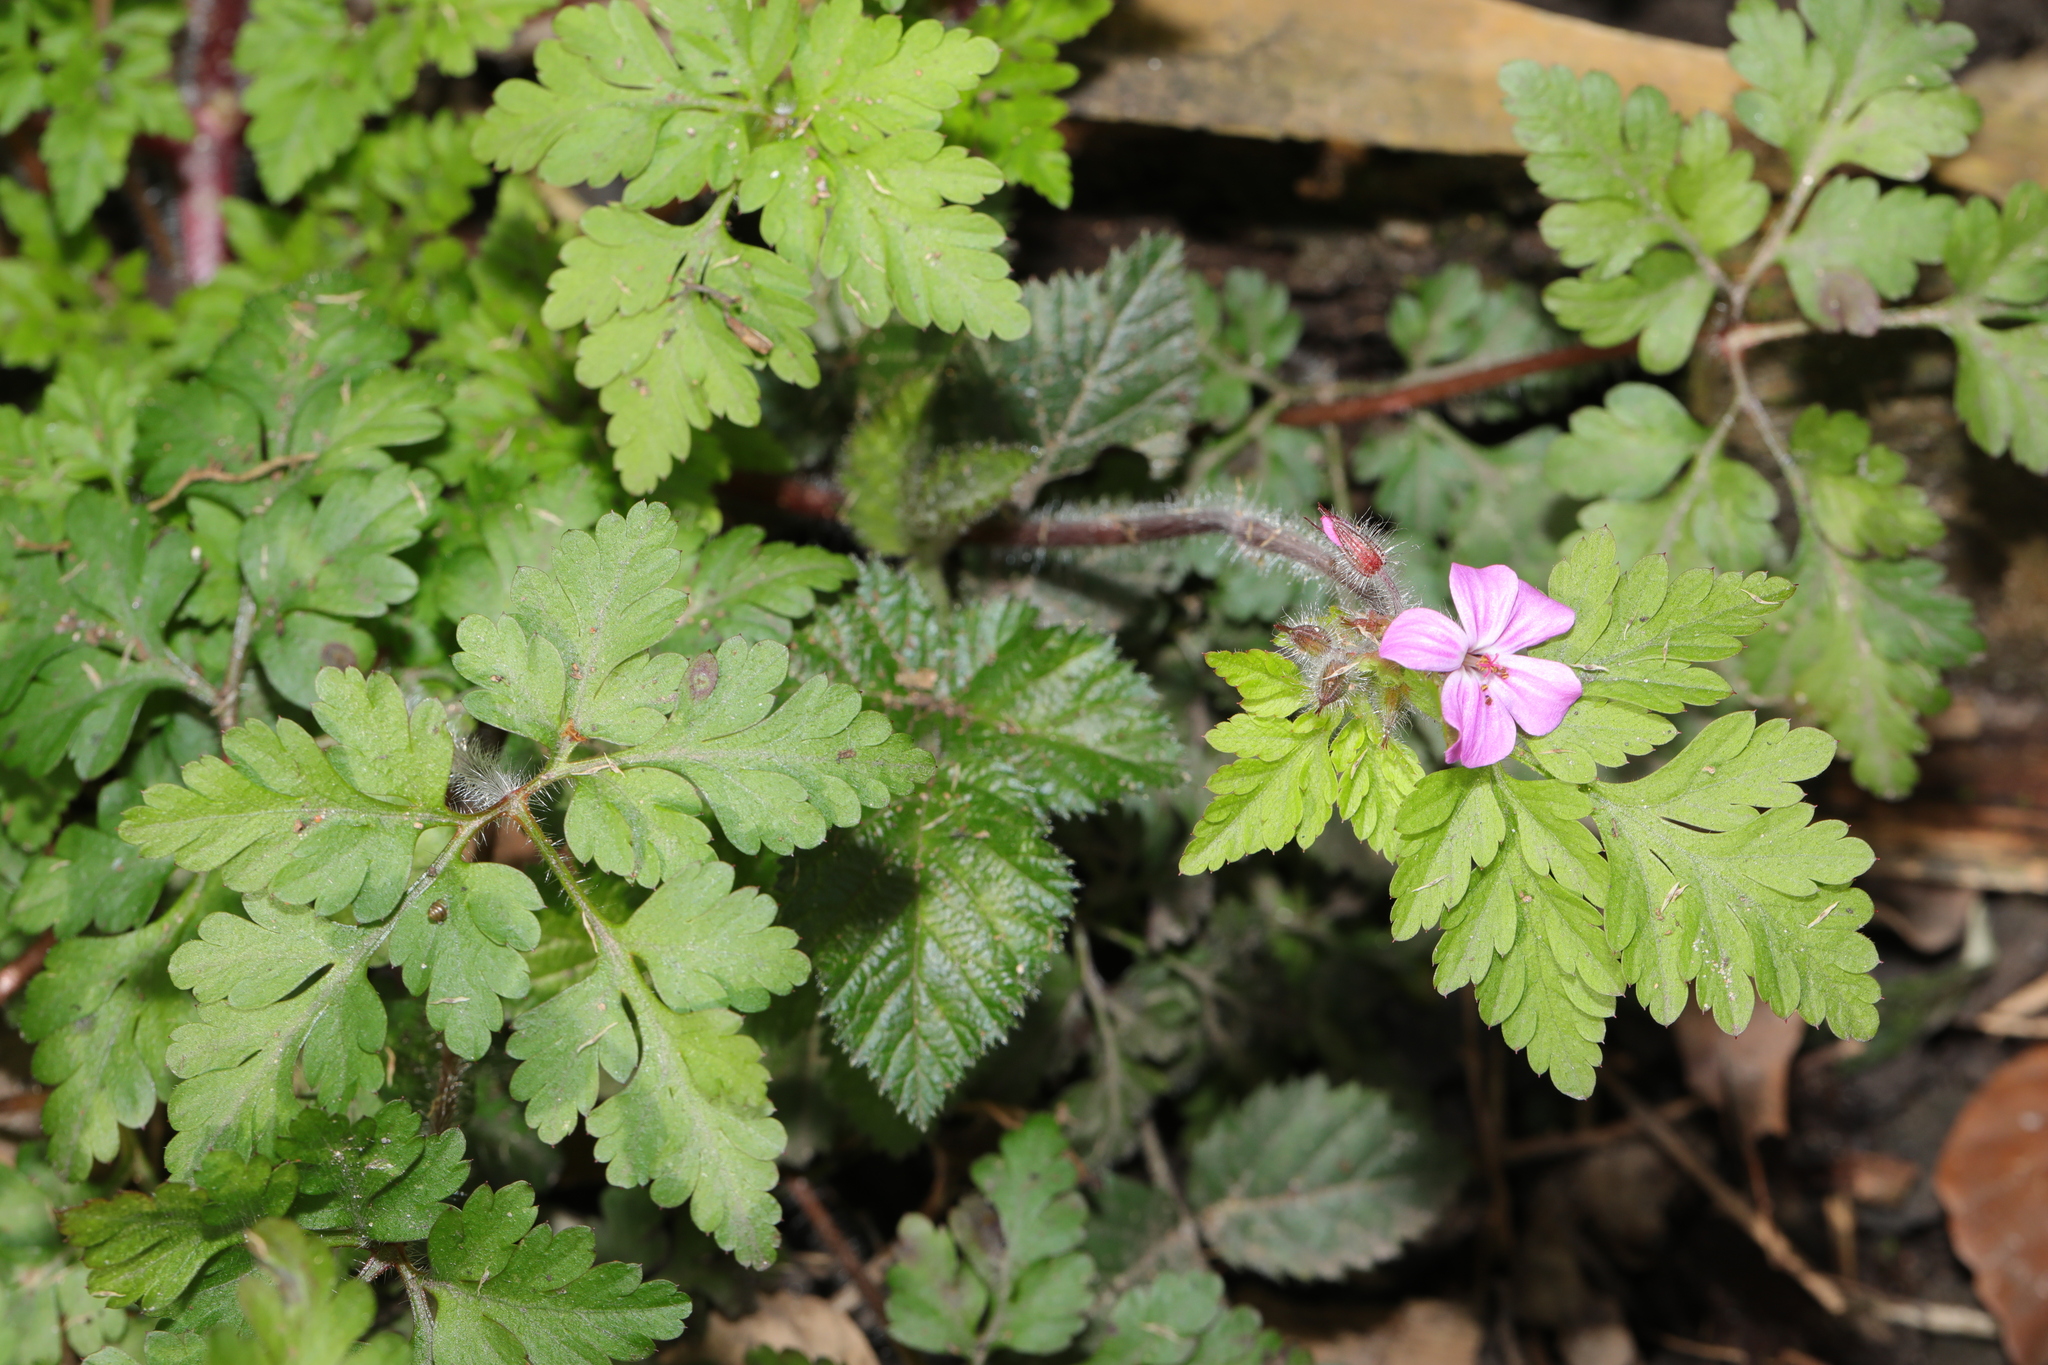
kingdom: Plantae
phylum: Tracheophyta
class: Magnoliopsida
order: Geraniales
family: Geraniaceae
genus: Geranium
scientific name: Geranium robertianum
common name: Herb-robert
